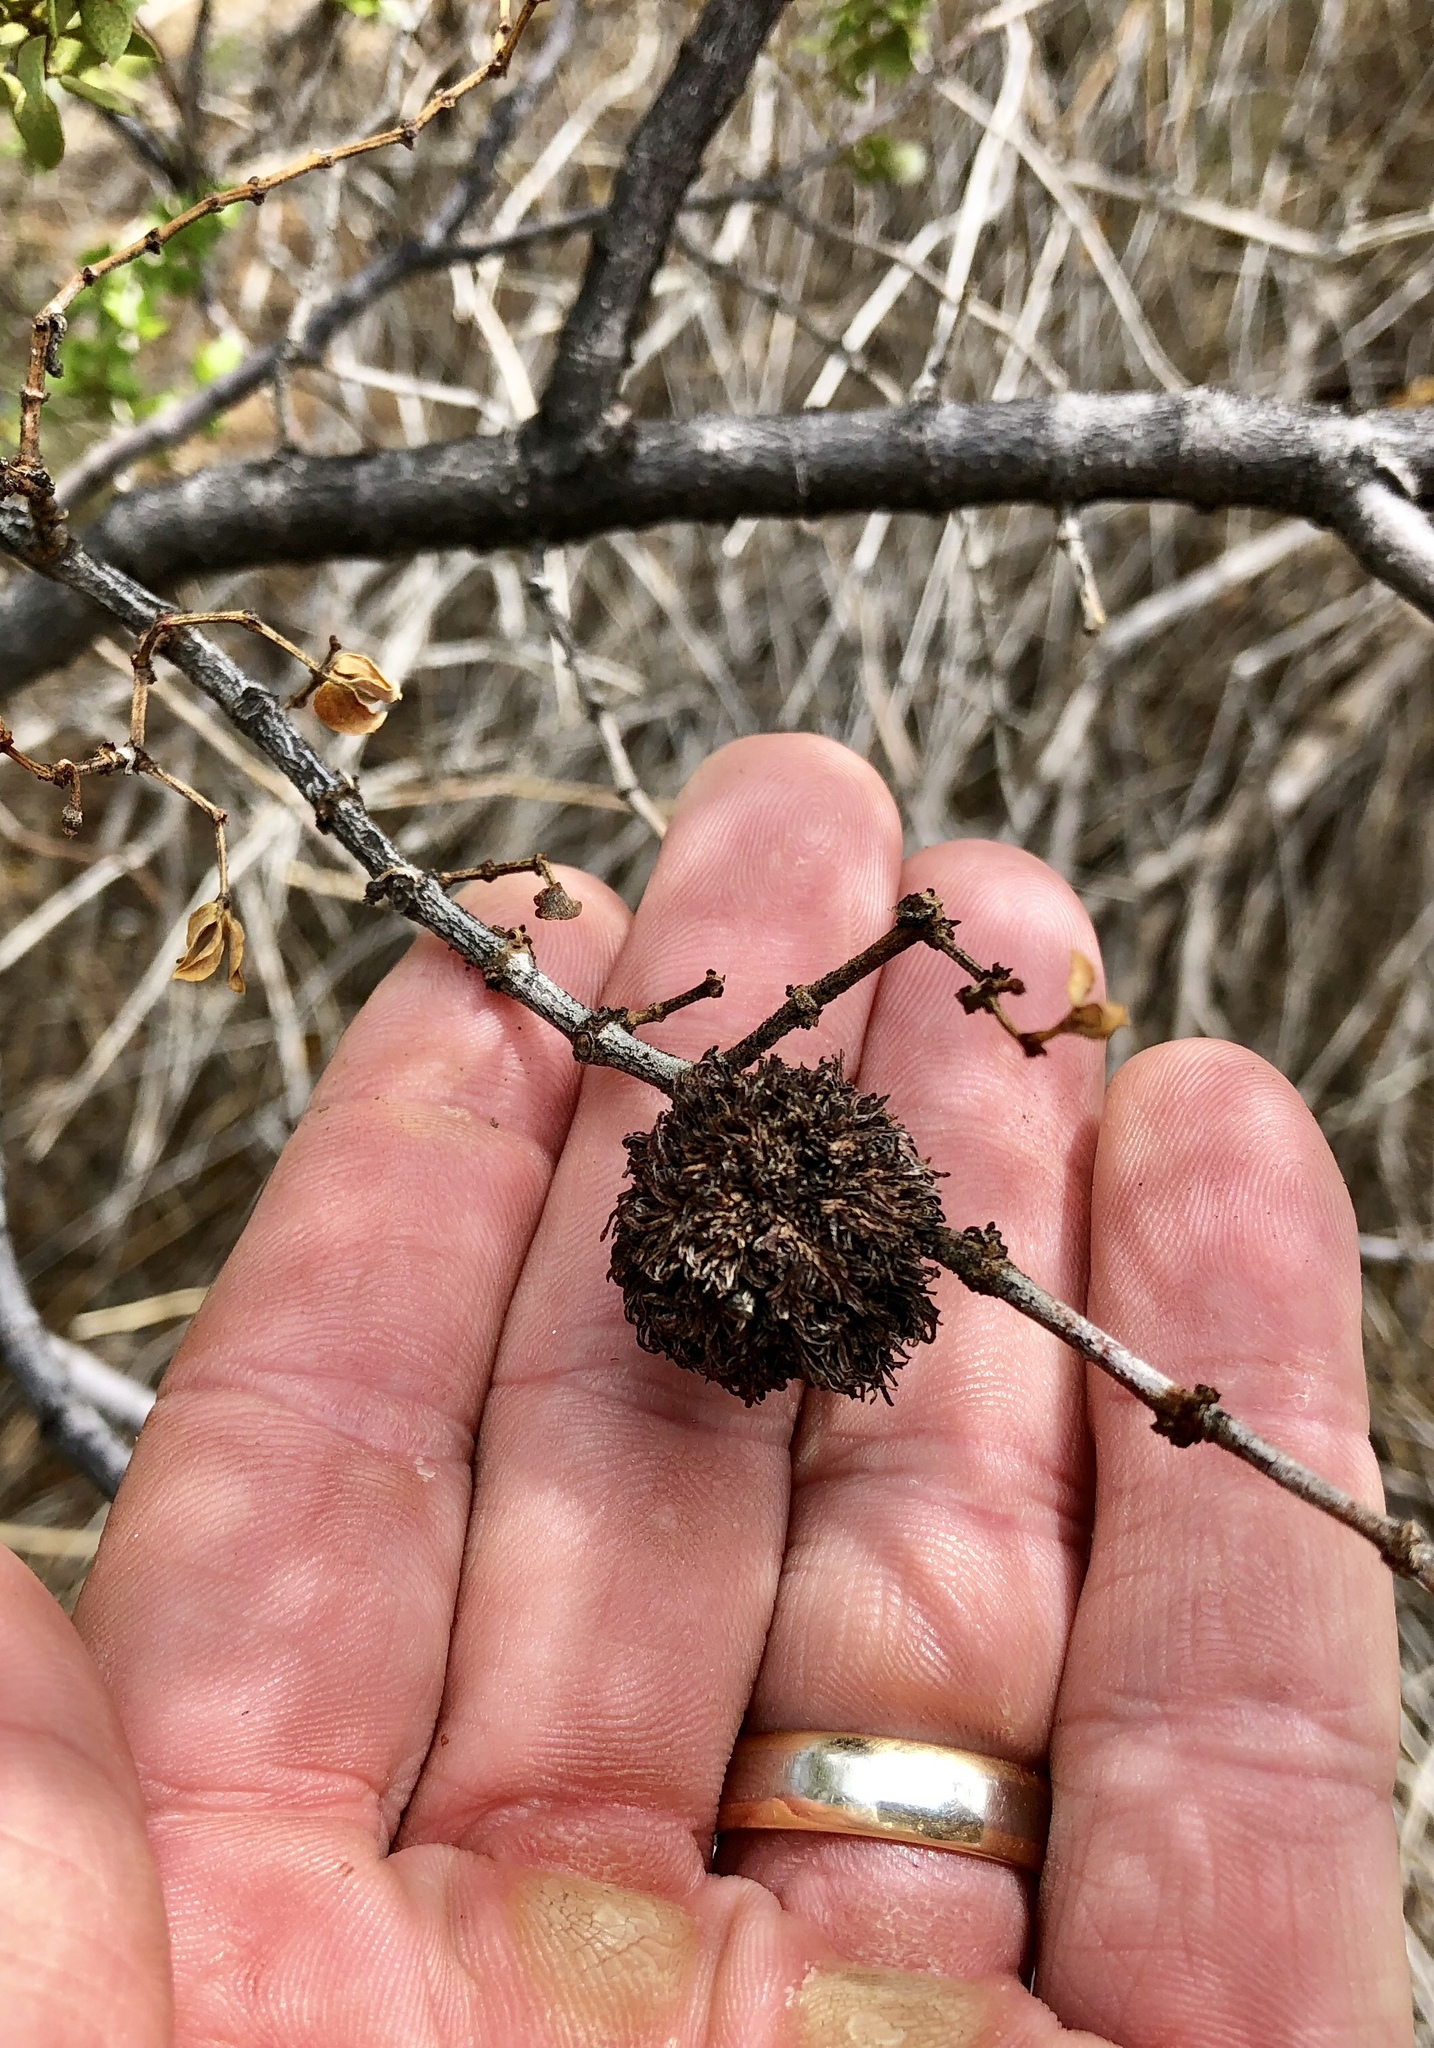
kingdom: Animalia
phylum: Arthropoda
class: Insecta
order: Diptera
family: Cecidomyiidae
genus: Asphondylia
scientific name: Asphondylia auripila
